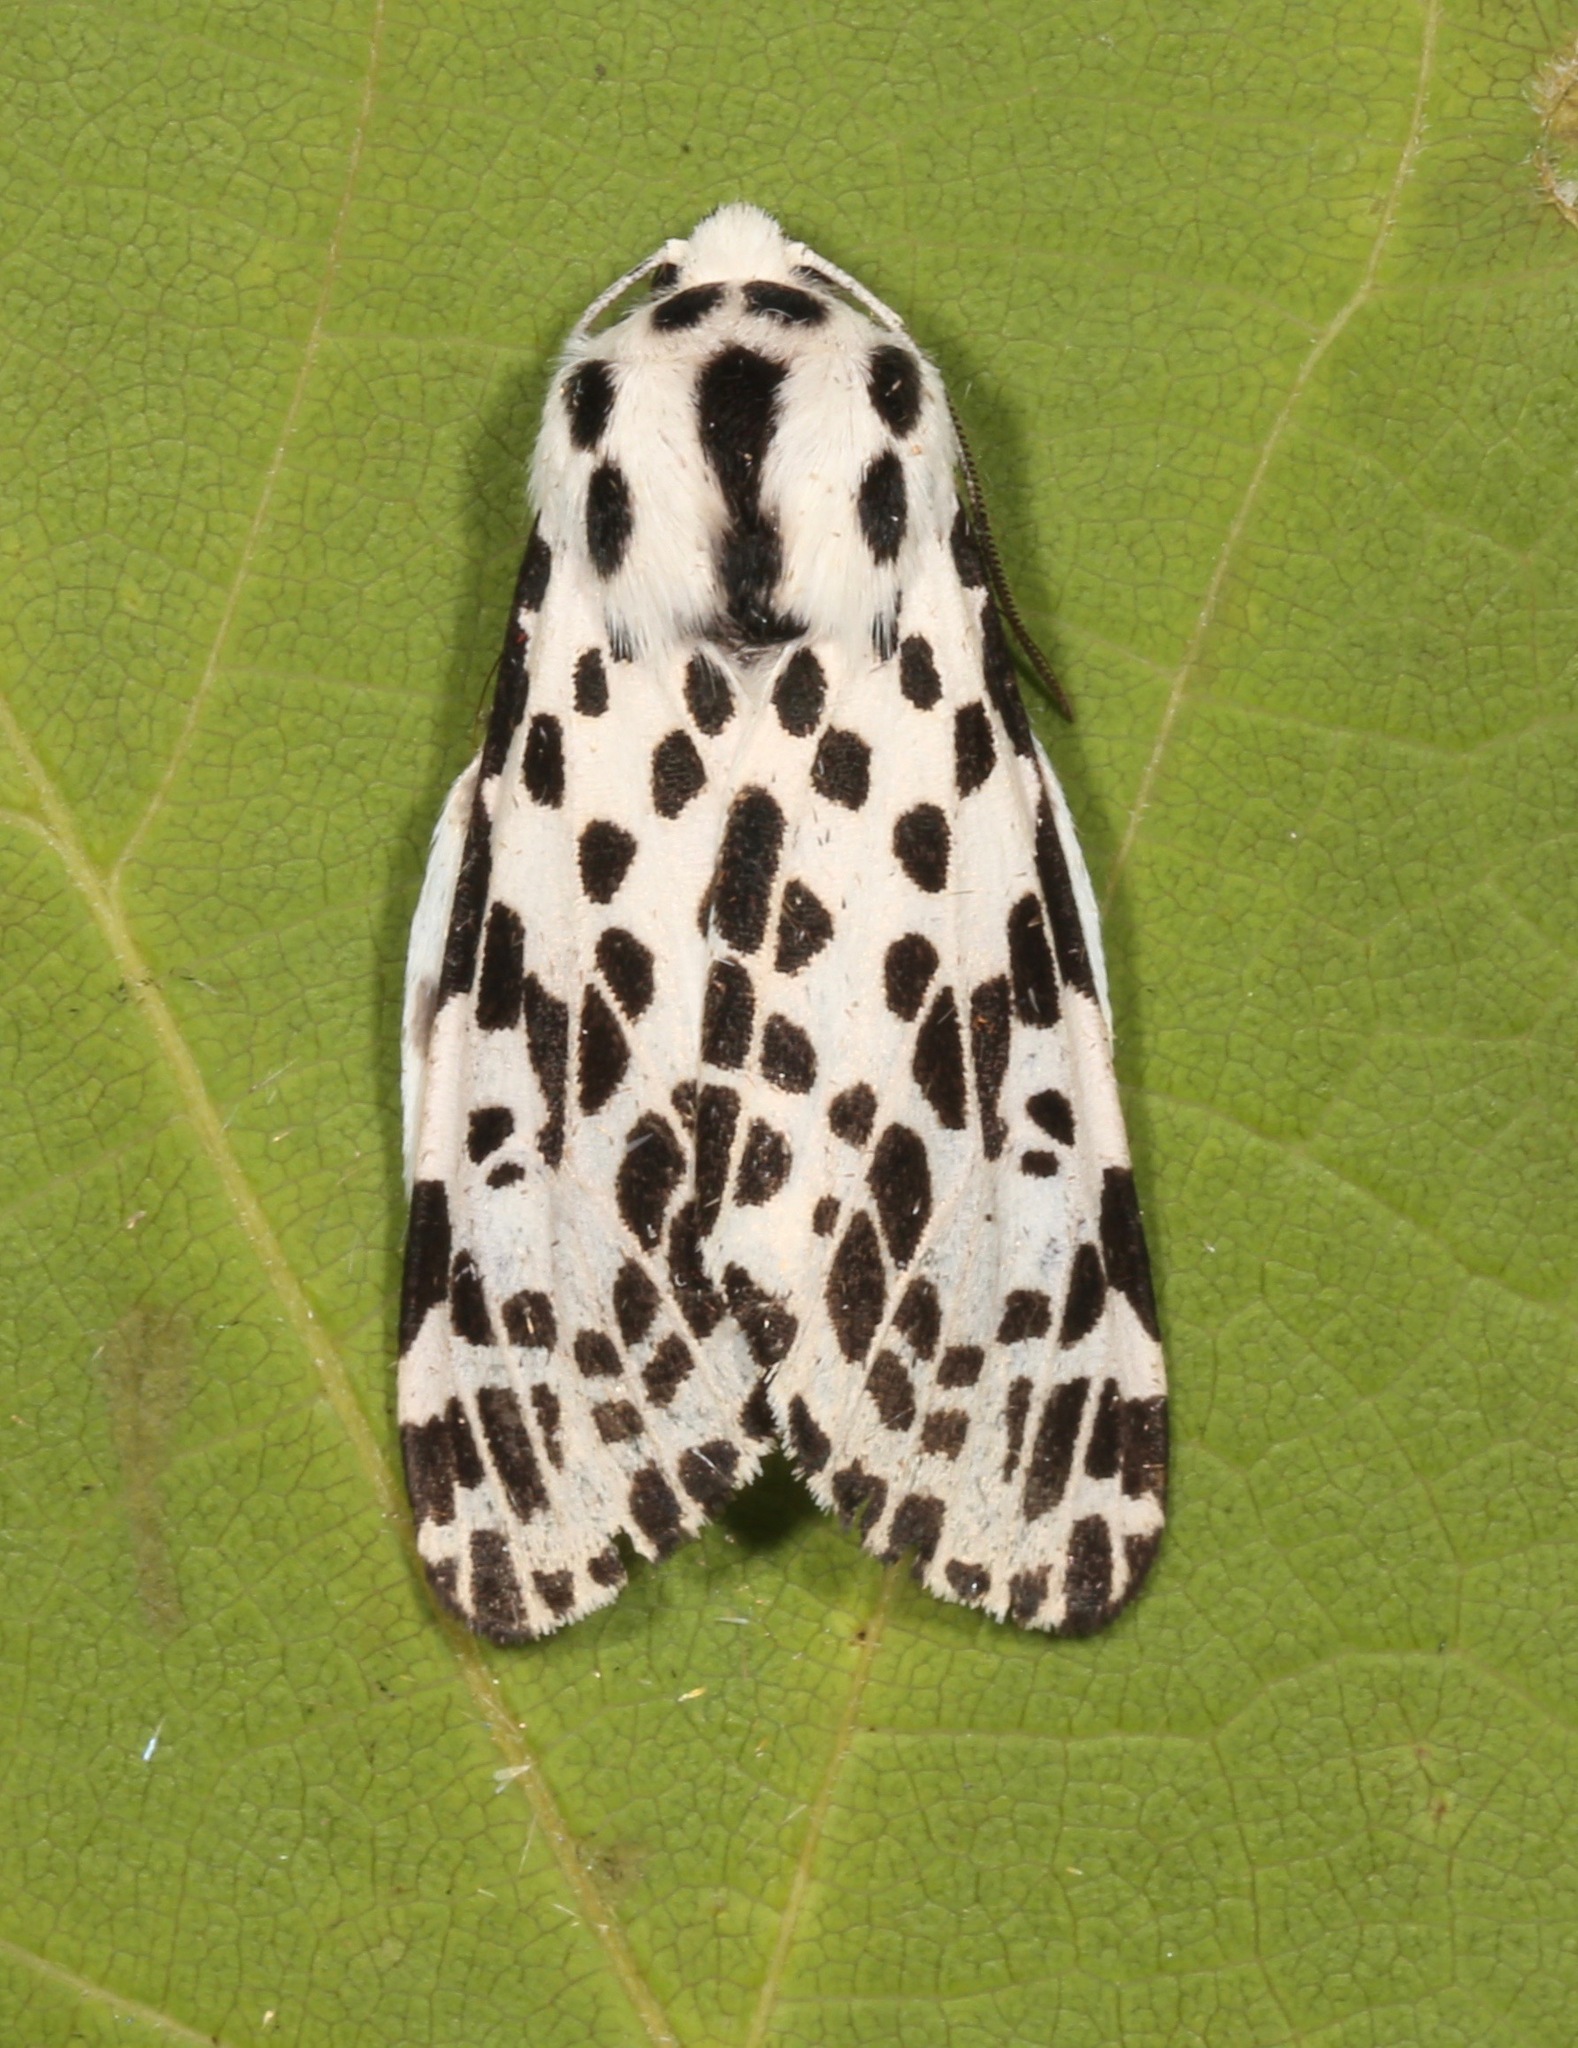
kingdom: Animalia
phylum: Arthropoda
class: Insecta
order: Lepidoptera
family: Erebidae
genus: Hypercompe
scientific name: Hypercompe permaculata
